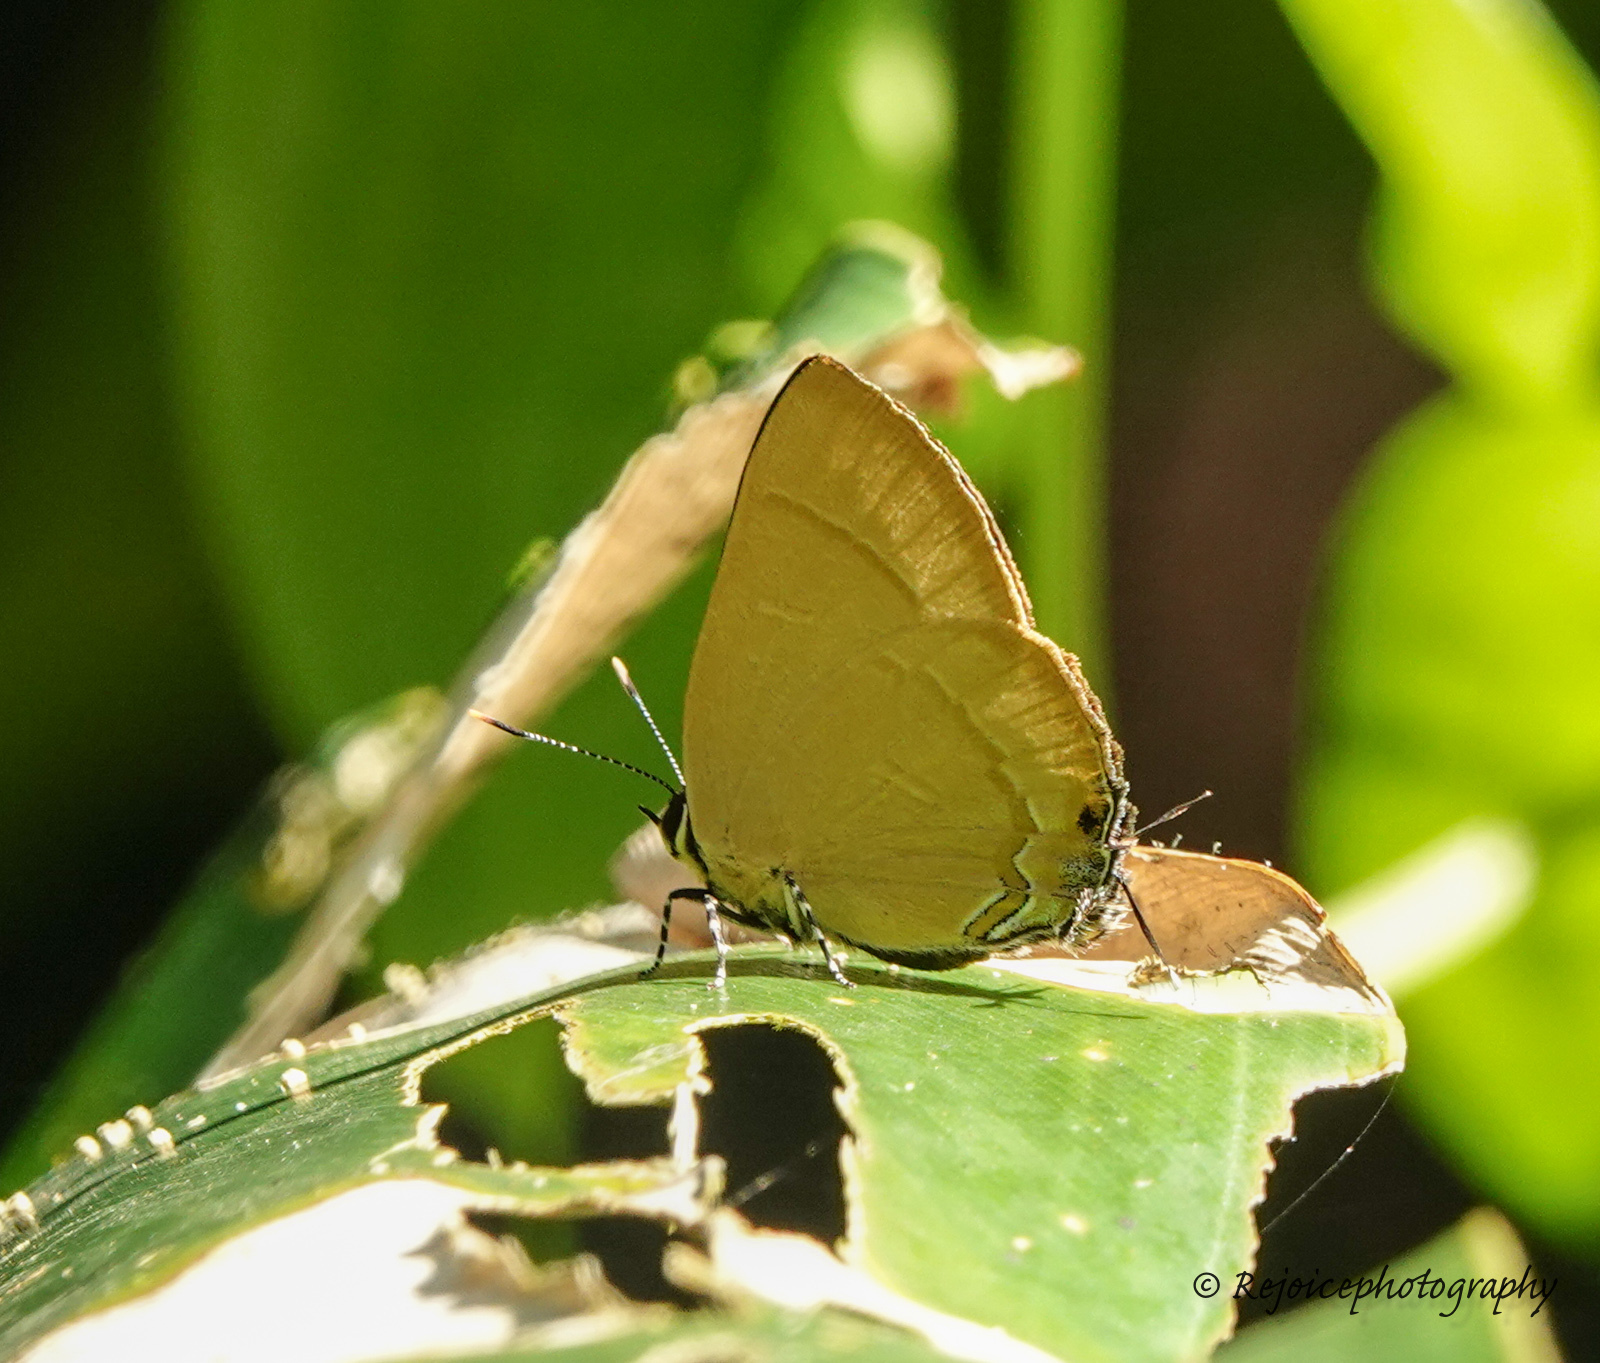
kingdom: Animalia
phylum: Arthropoda
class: Insecta
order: Lepidoptera
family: Lycaenidae
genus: Rapala
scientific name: Rapala suffusa
